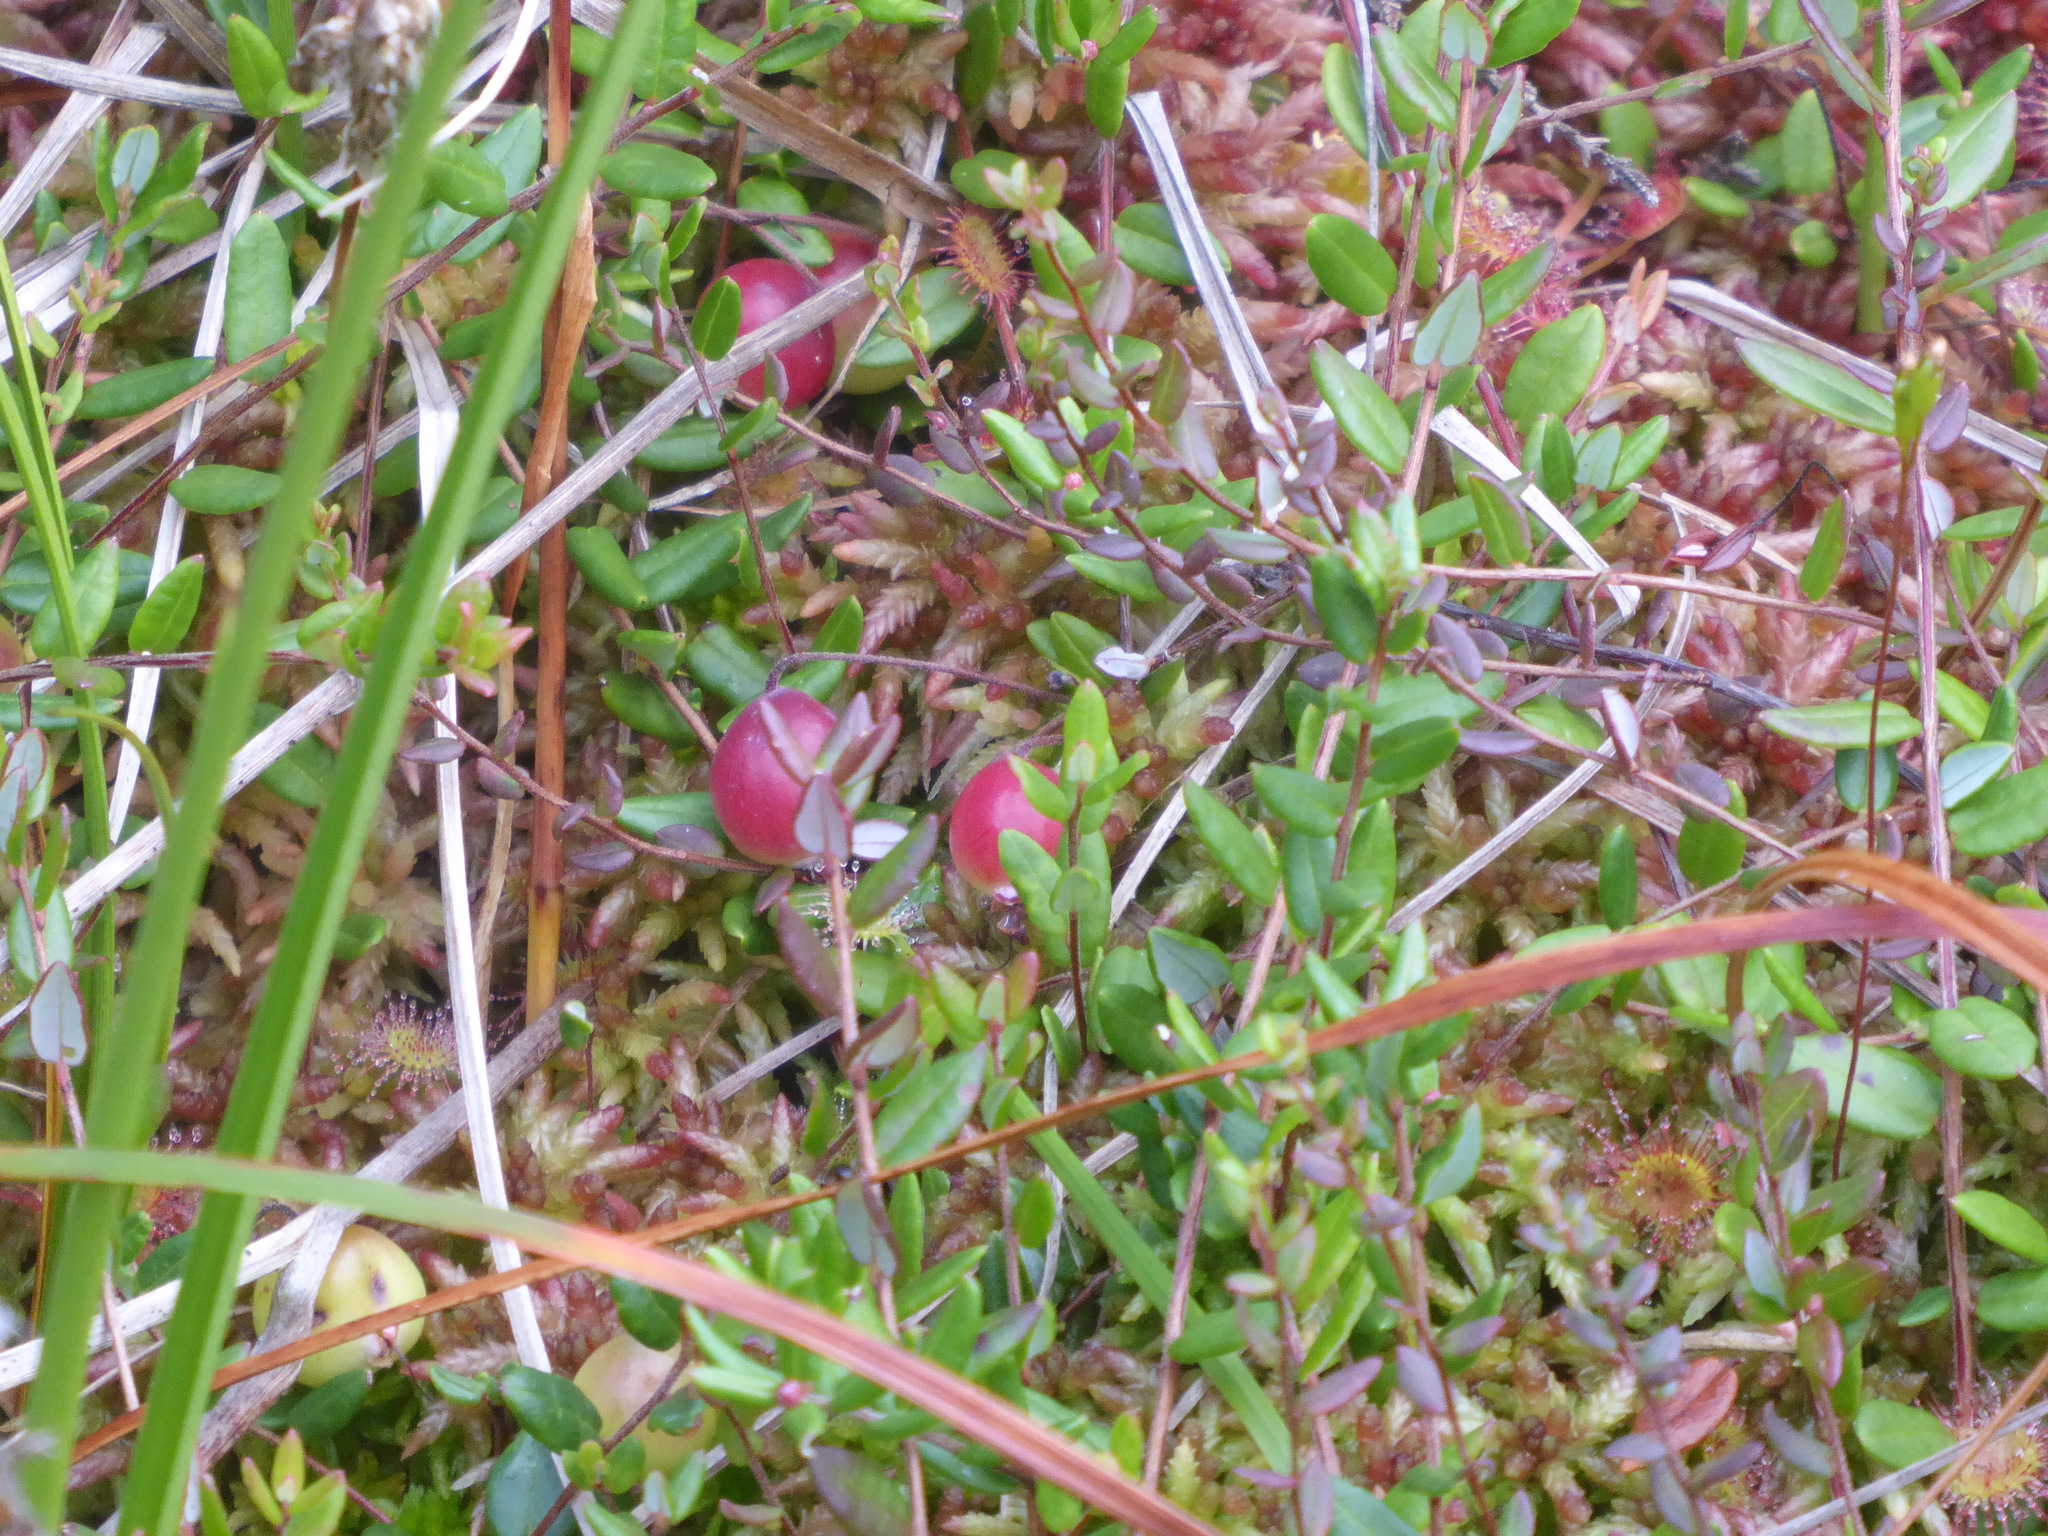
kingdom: Plantae
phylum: Tracheophyta
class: Magnoliopsida
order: Ericales
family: Ericaceae
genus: Vaccinium
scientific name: Vaccinium oxycoccos
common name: Cranberry
